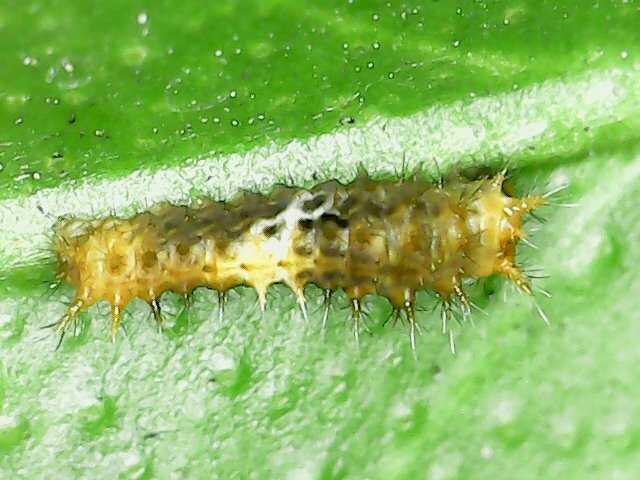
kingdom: Animalia
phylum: Arthropoda
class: Insecta
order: Lepidoptera
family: Papilionidae
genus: Papilio
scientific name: Papilio demoleus
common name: Lime butterfly
